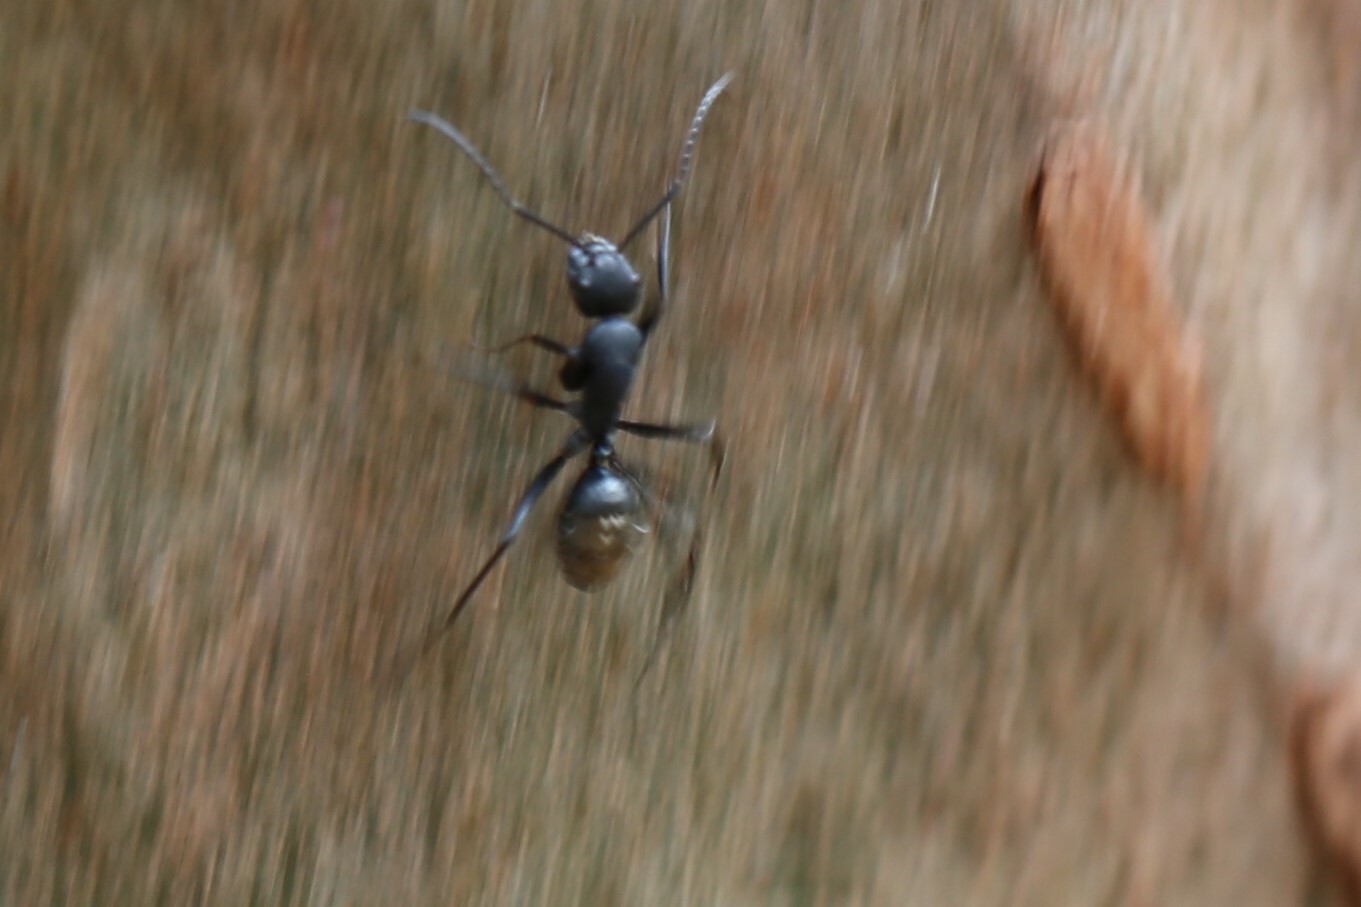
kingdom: Animalia
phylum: Arthropoda
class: Insecta
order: Hymenoptera
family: Formicidae
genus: Camponotus
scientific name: Camponotus aeneopilosus
